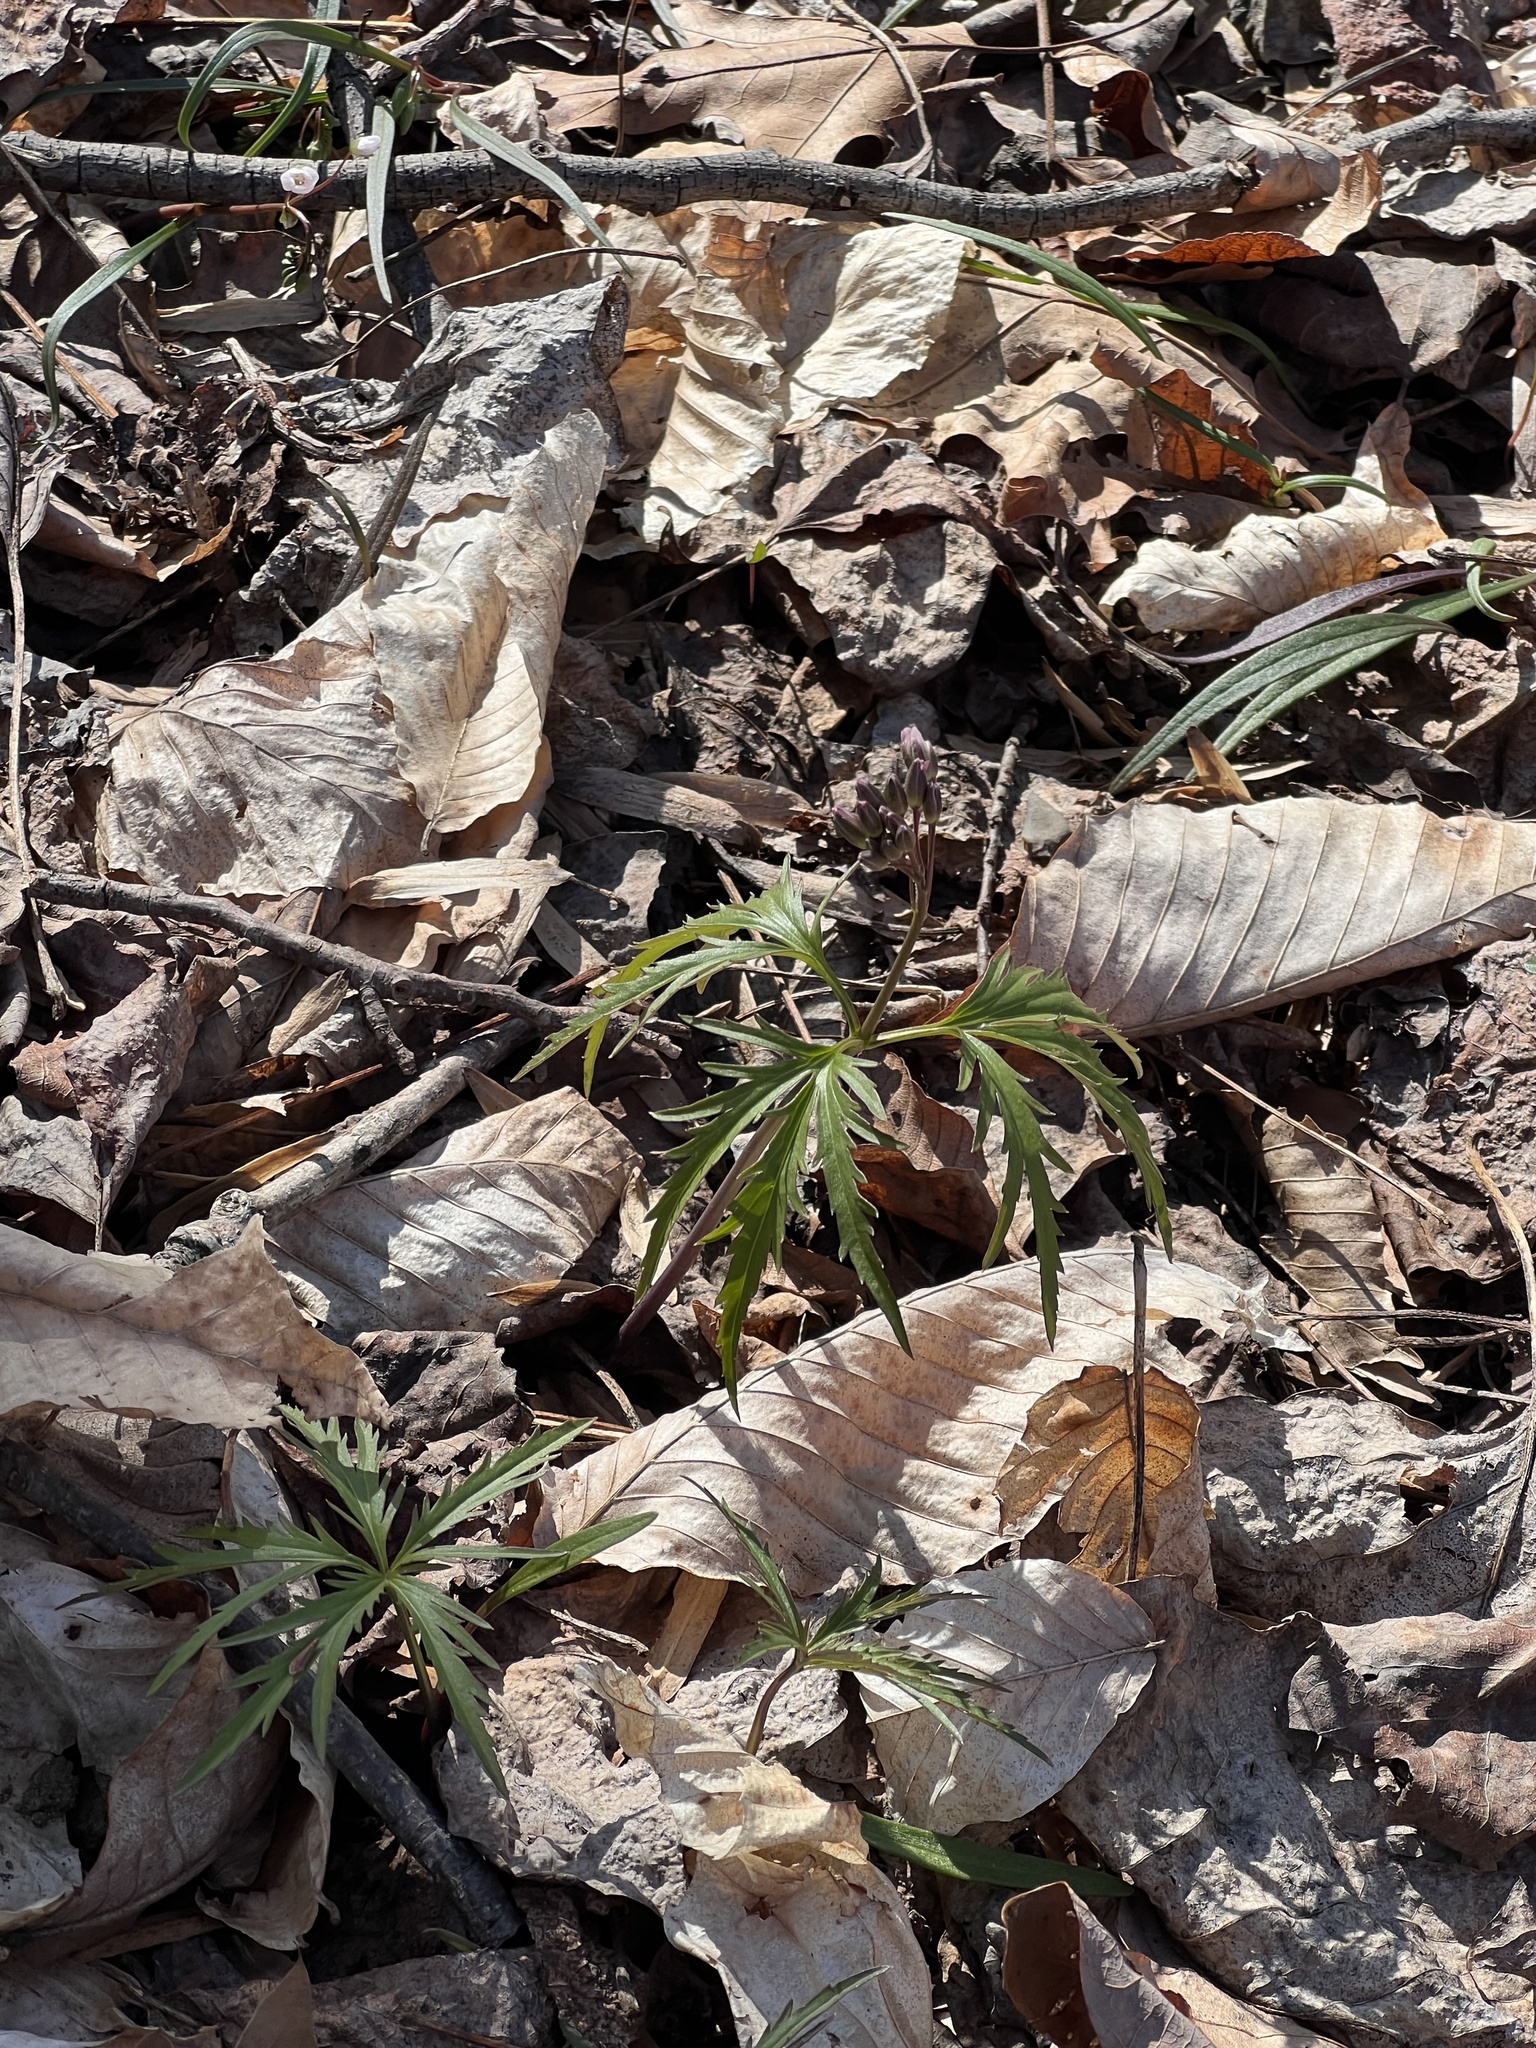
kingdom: Plantae
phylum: Tracheophyta
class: Magnoliopsida
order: Brassicales
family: Brassicaceae
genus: Cardamine
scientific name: Cardamine concatenata
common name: Cut-leaf toothcup
